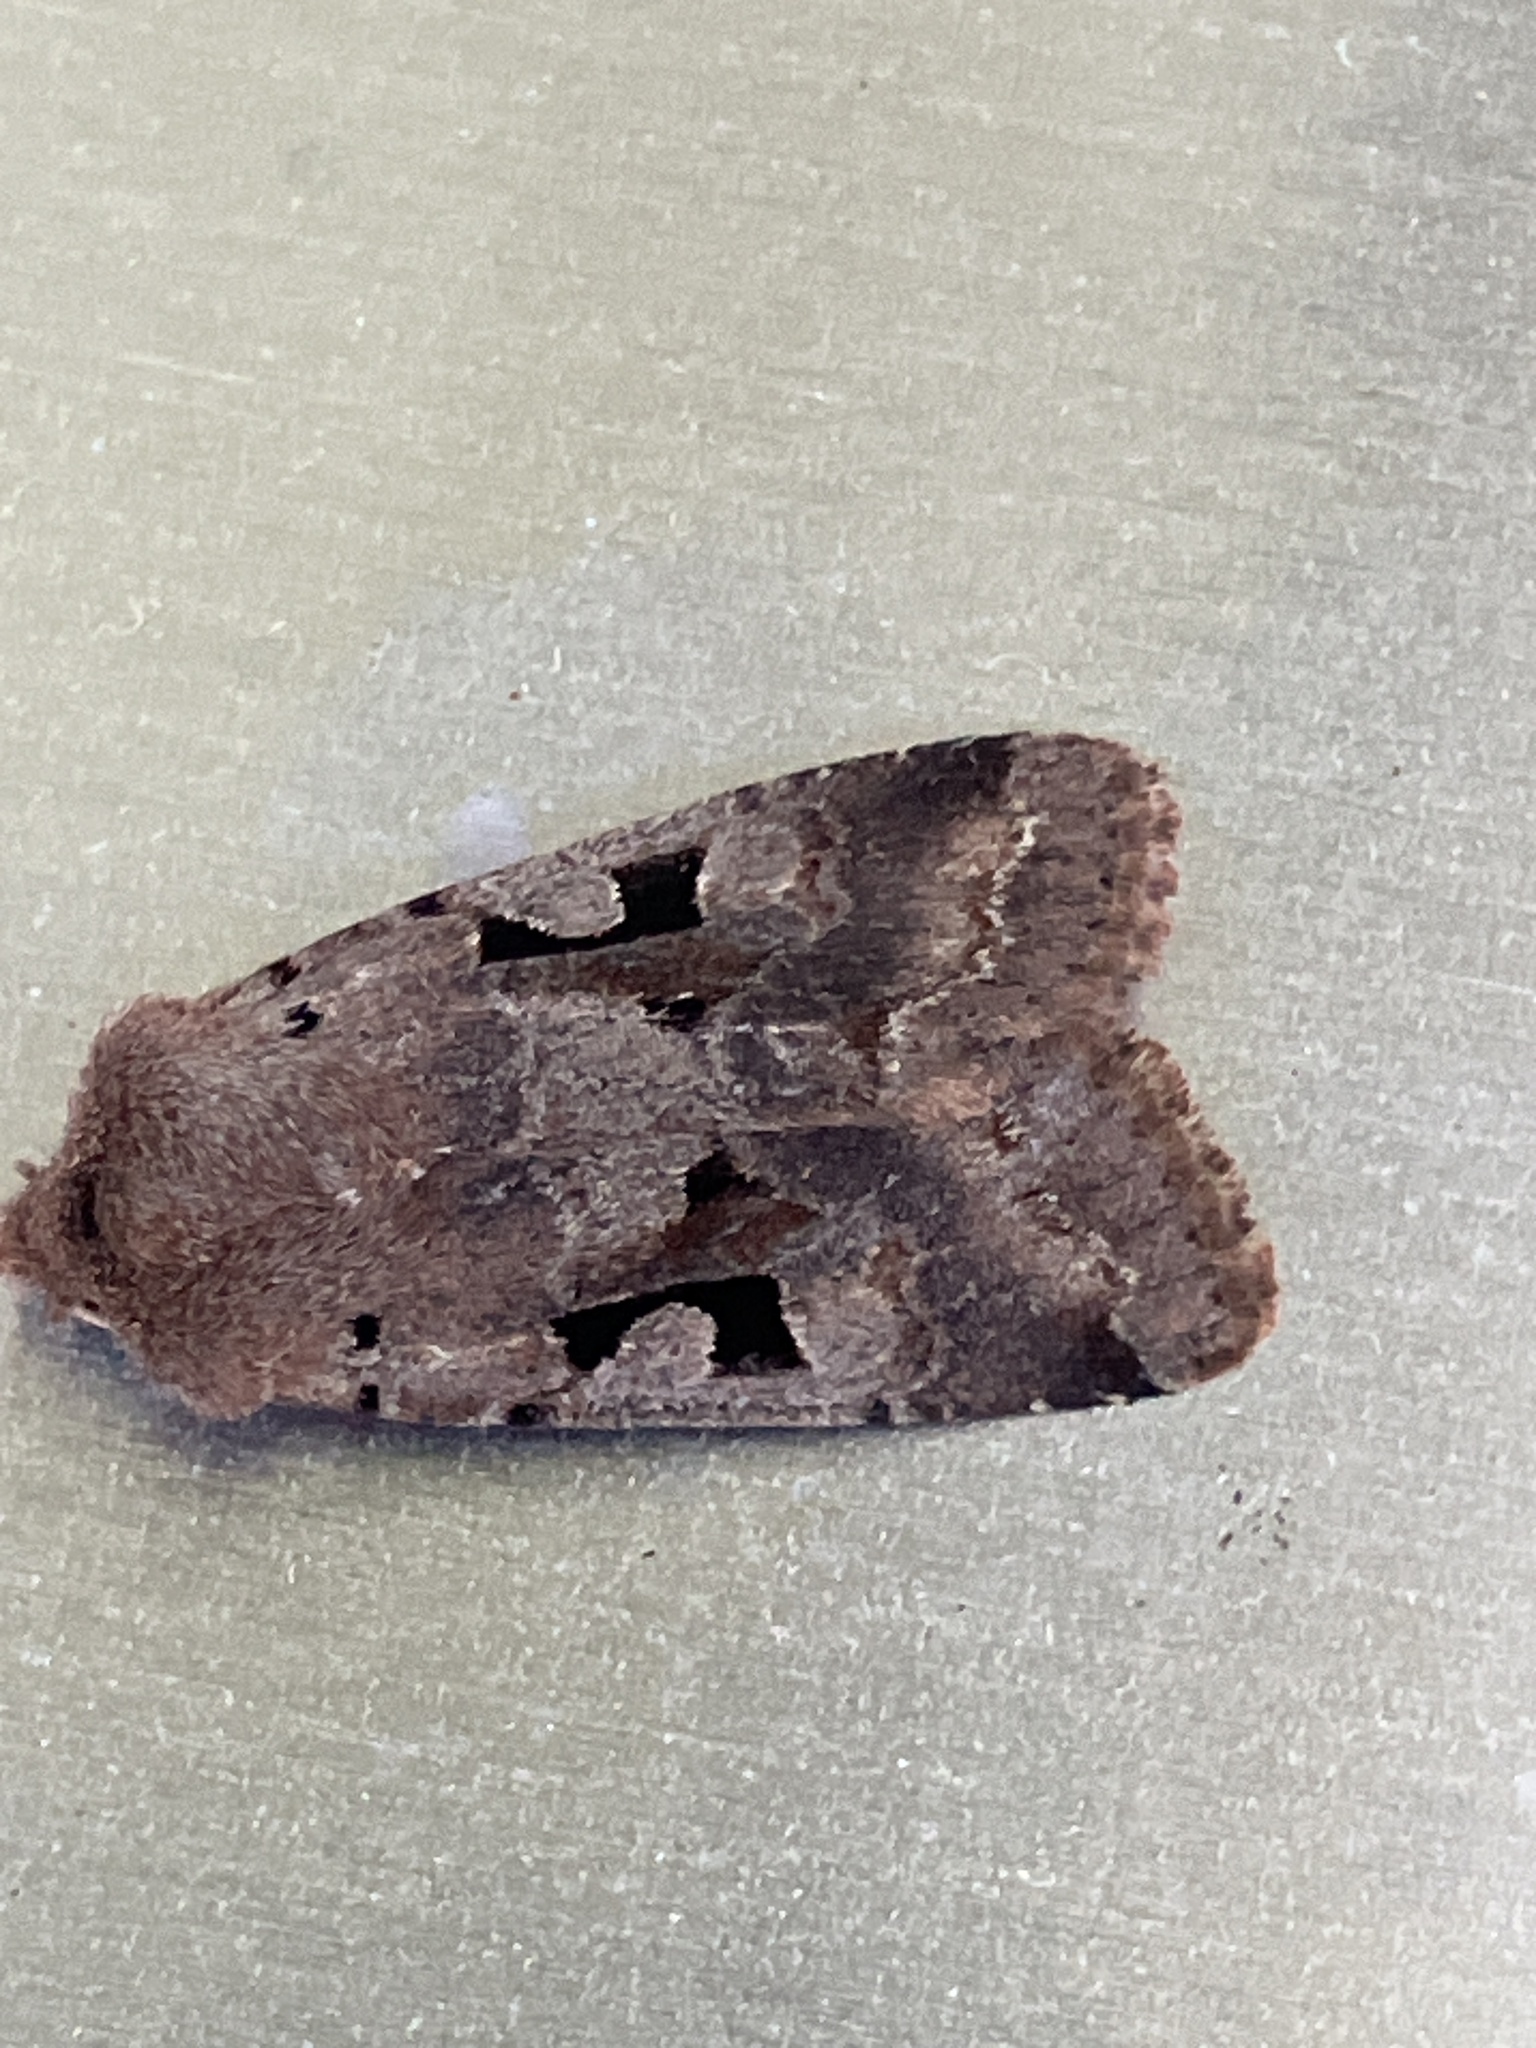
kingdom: Animalia
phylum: Arthropoda
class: Insecta
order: Lepidoptera
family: Noctuidae
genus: Orthosia
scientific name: Orthosia gothica
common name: Hebrew character
